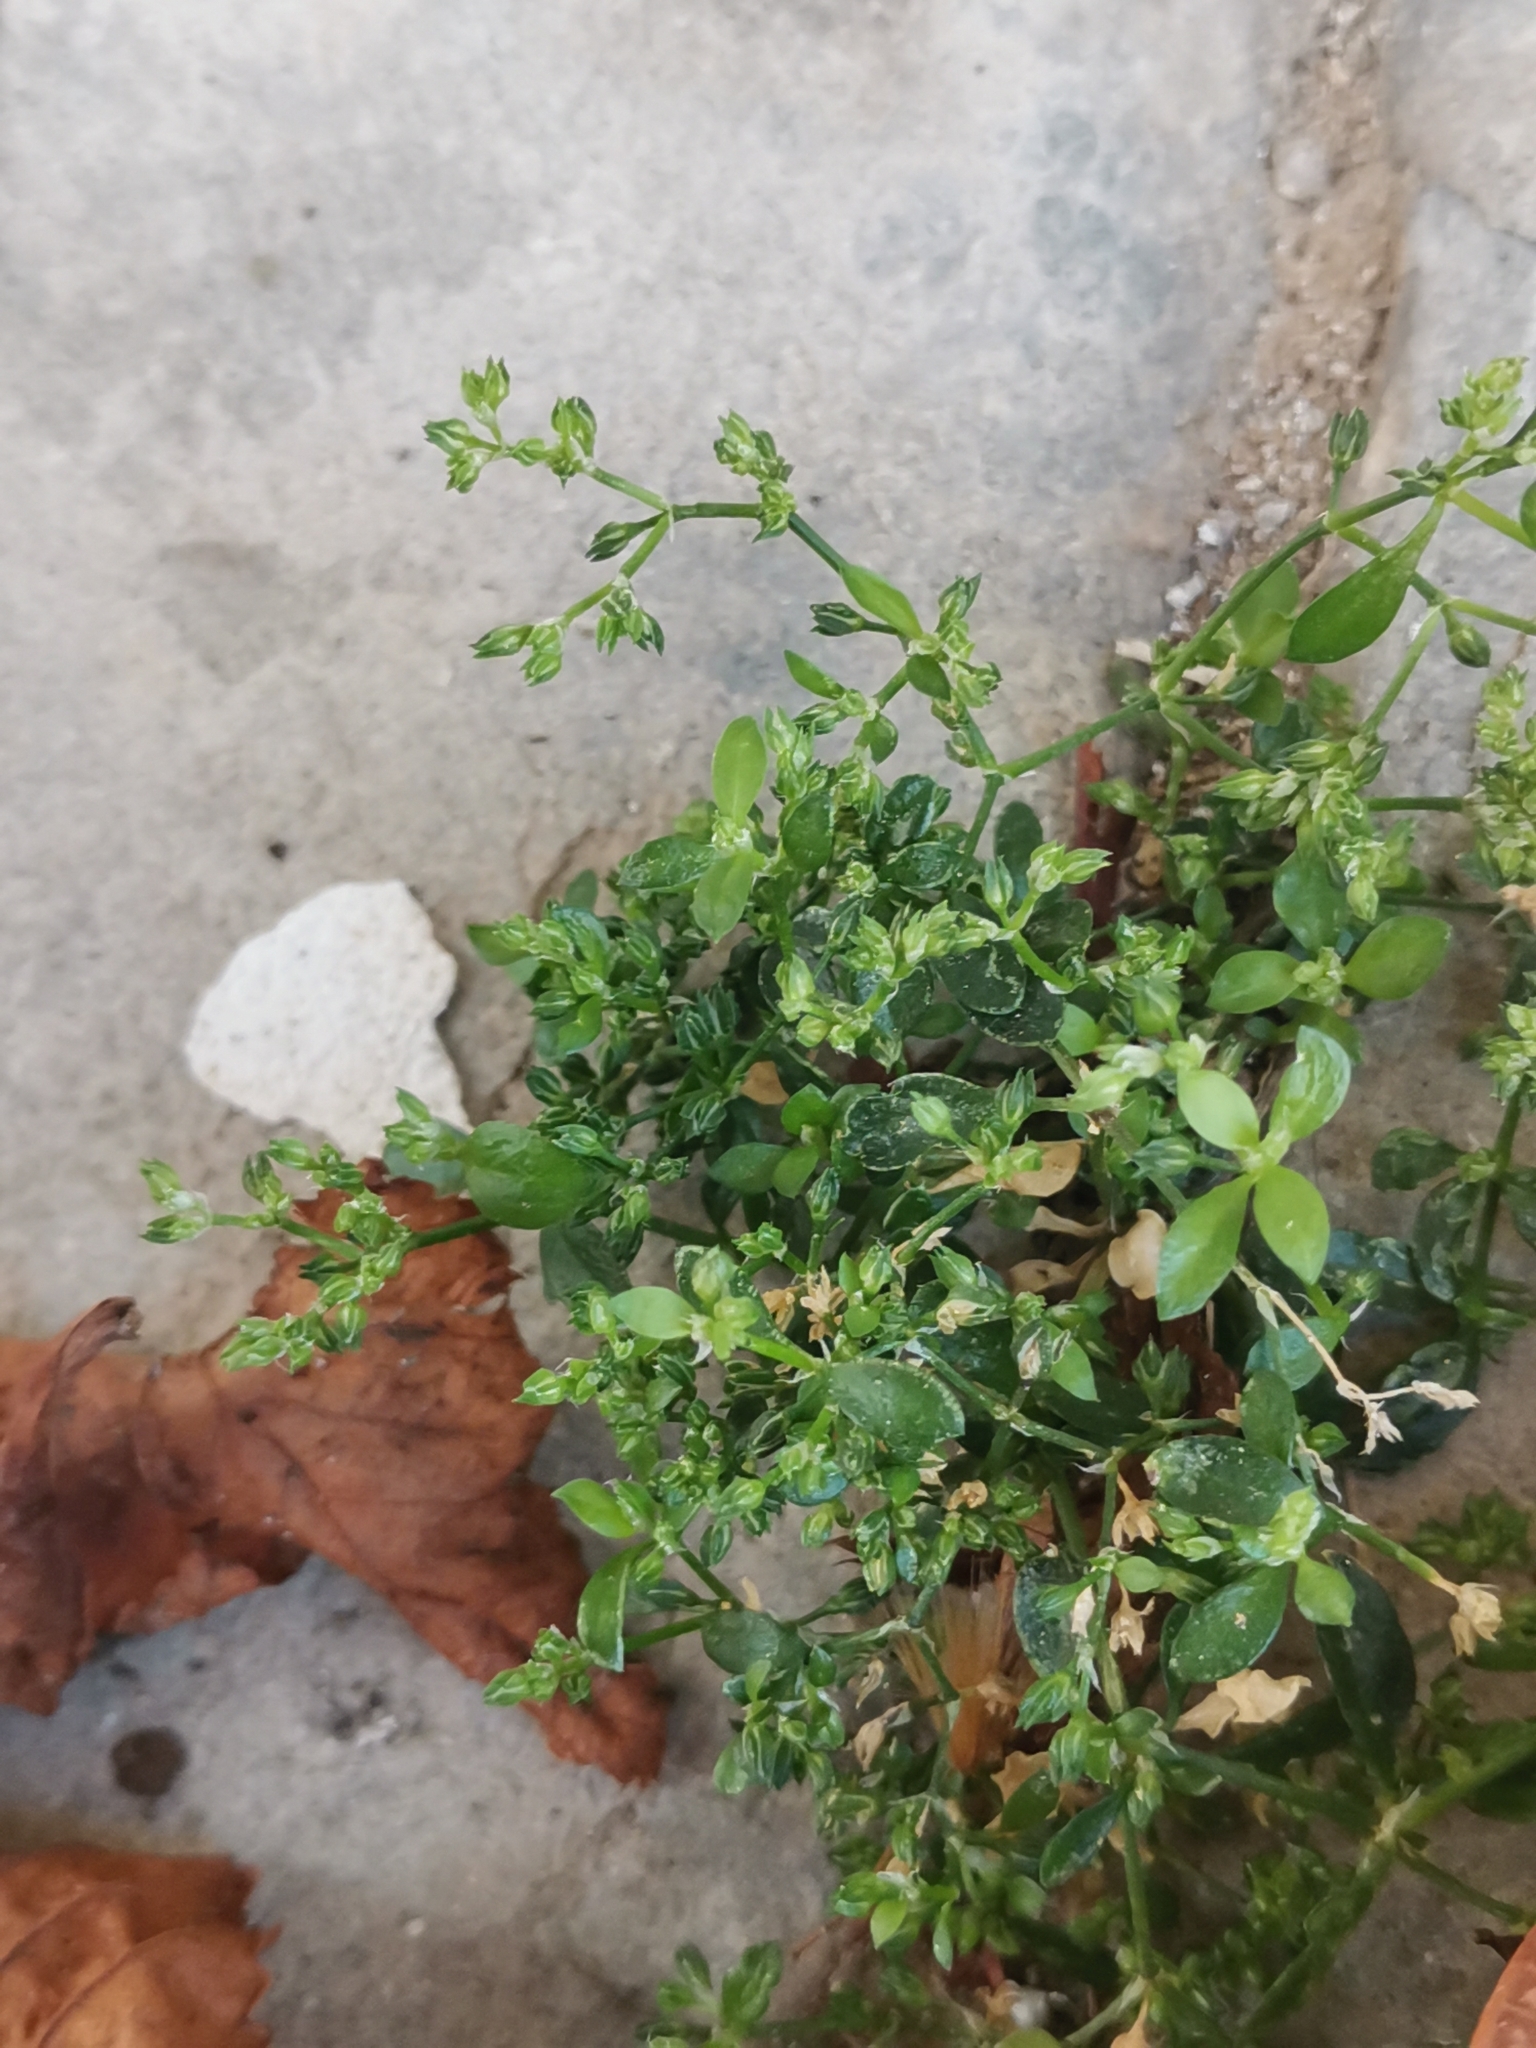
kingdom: Plantae
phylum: Tracheophyta
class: Magnoliopsida
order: Caryophyllales
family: Caryophyllaceae
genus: Polycarpon
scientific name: Polycarpon tetraphyllum
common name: Four-leaved all-seed
